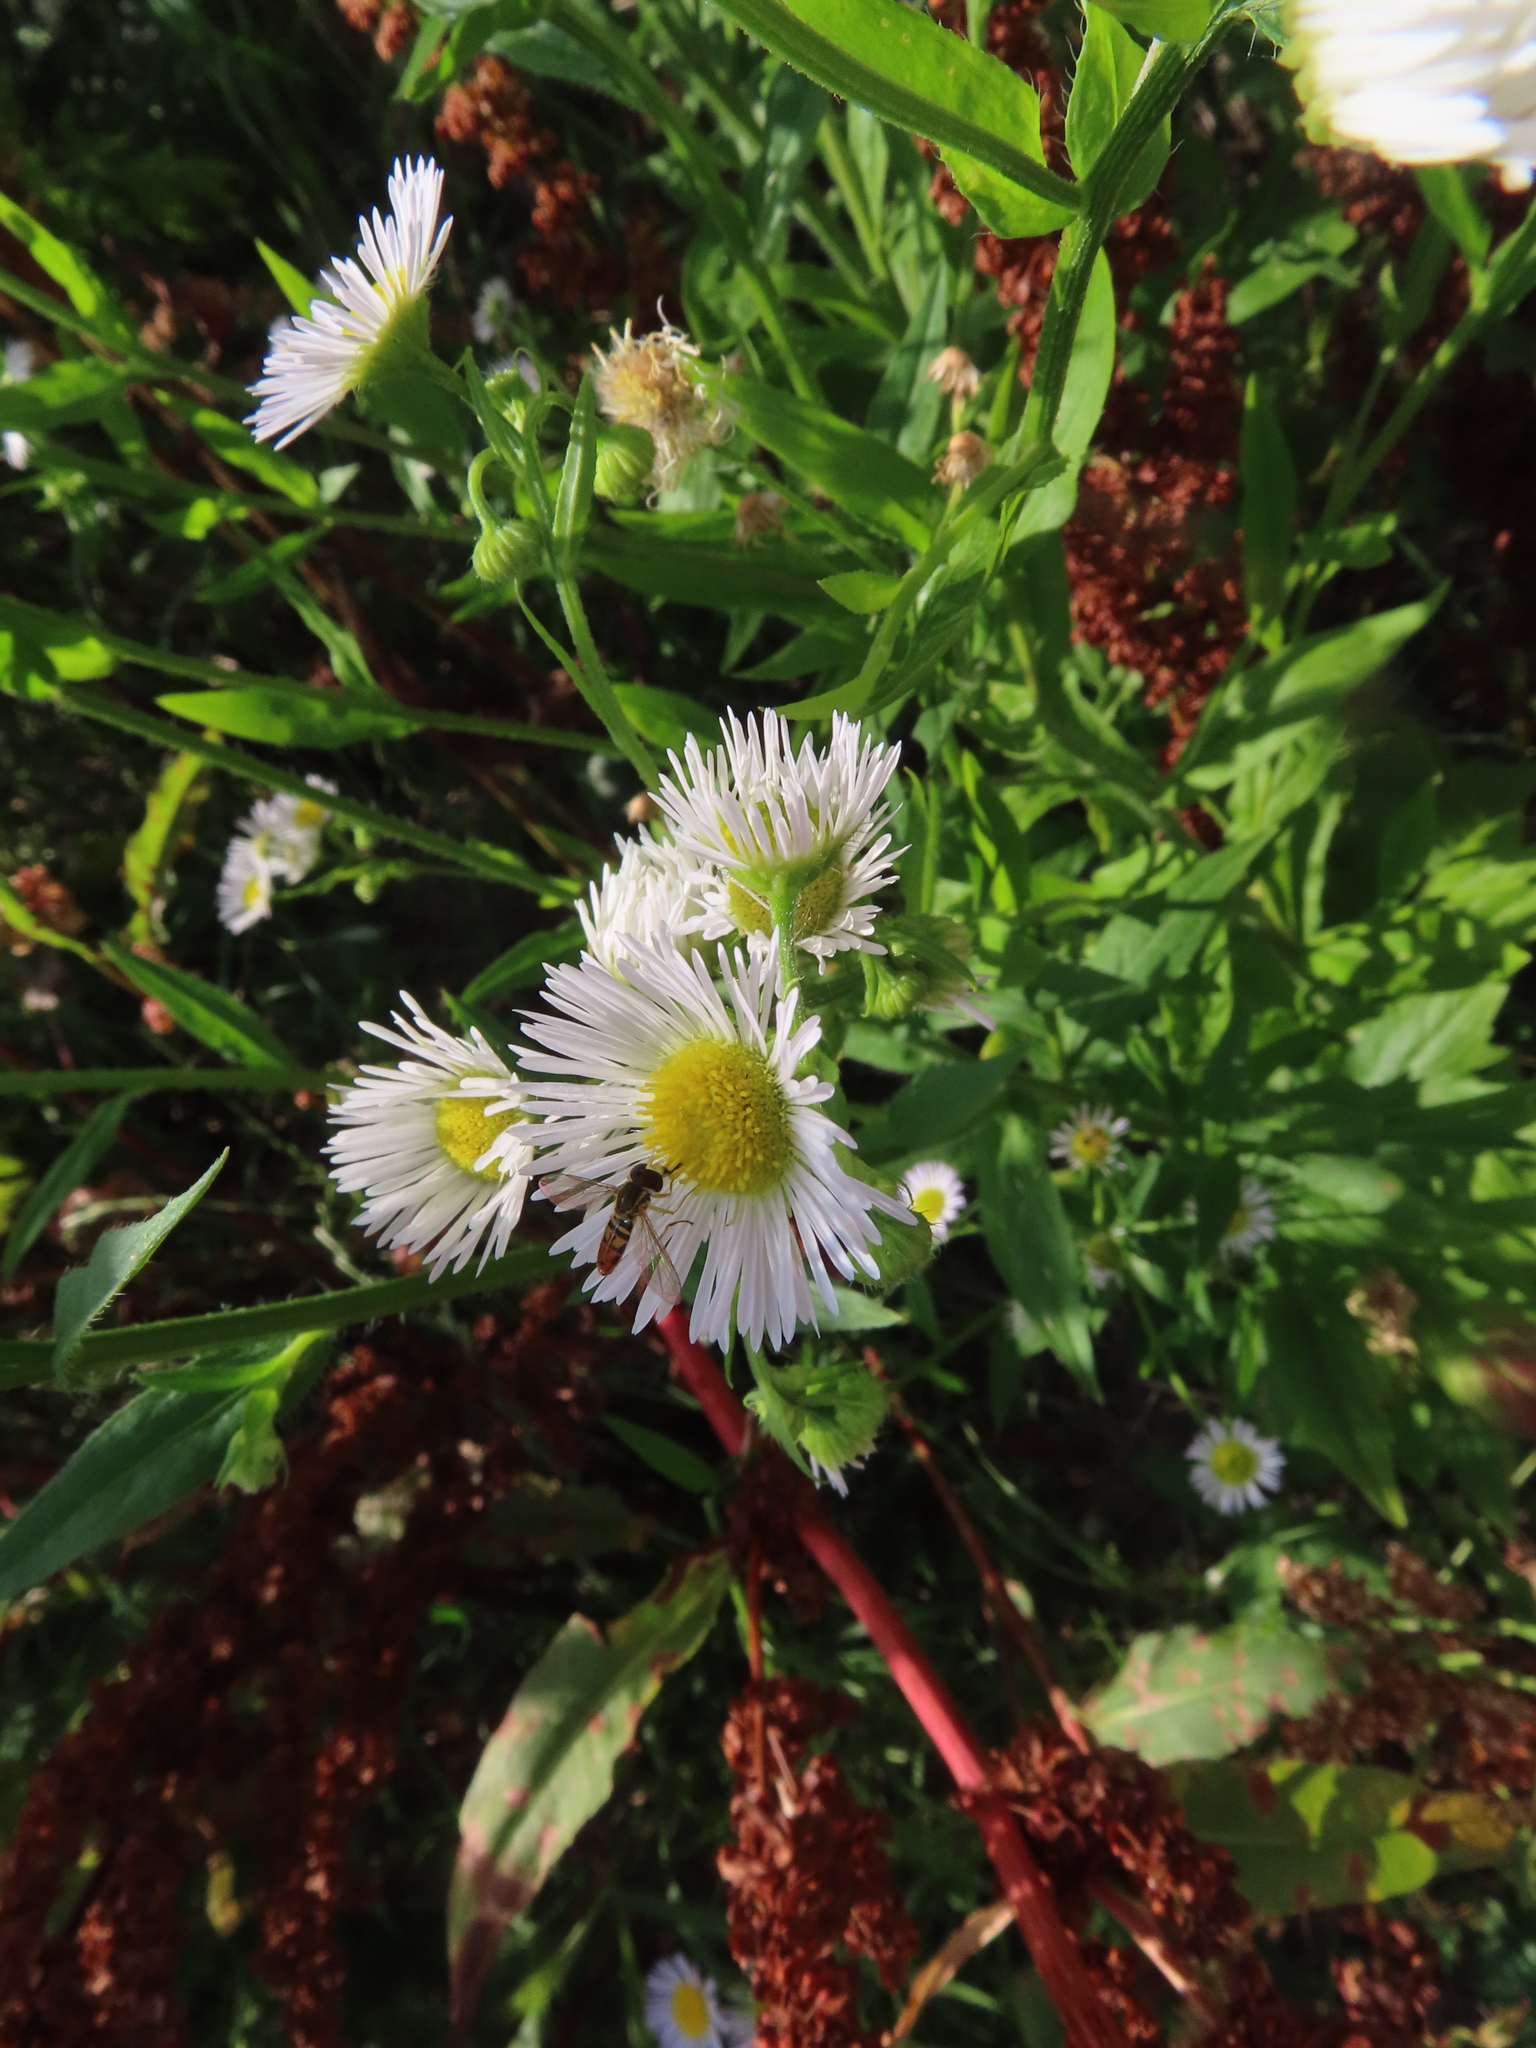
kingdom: Plantae
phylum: Tracheophyta
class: Magnoliopsida
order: Asterales
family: Asteraceae
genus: Erigeron
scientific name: Erigeron philadelphicus
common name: Robin's-plantain
